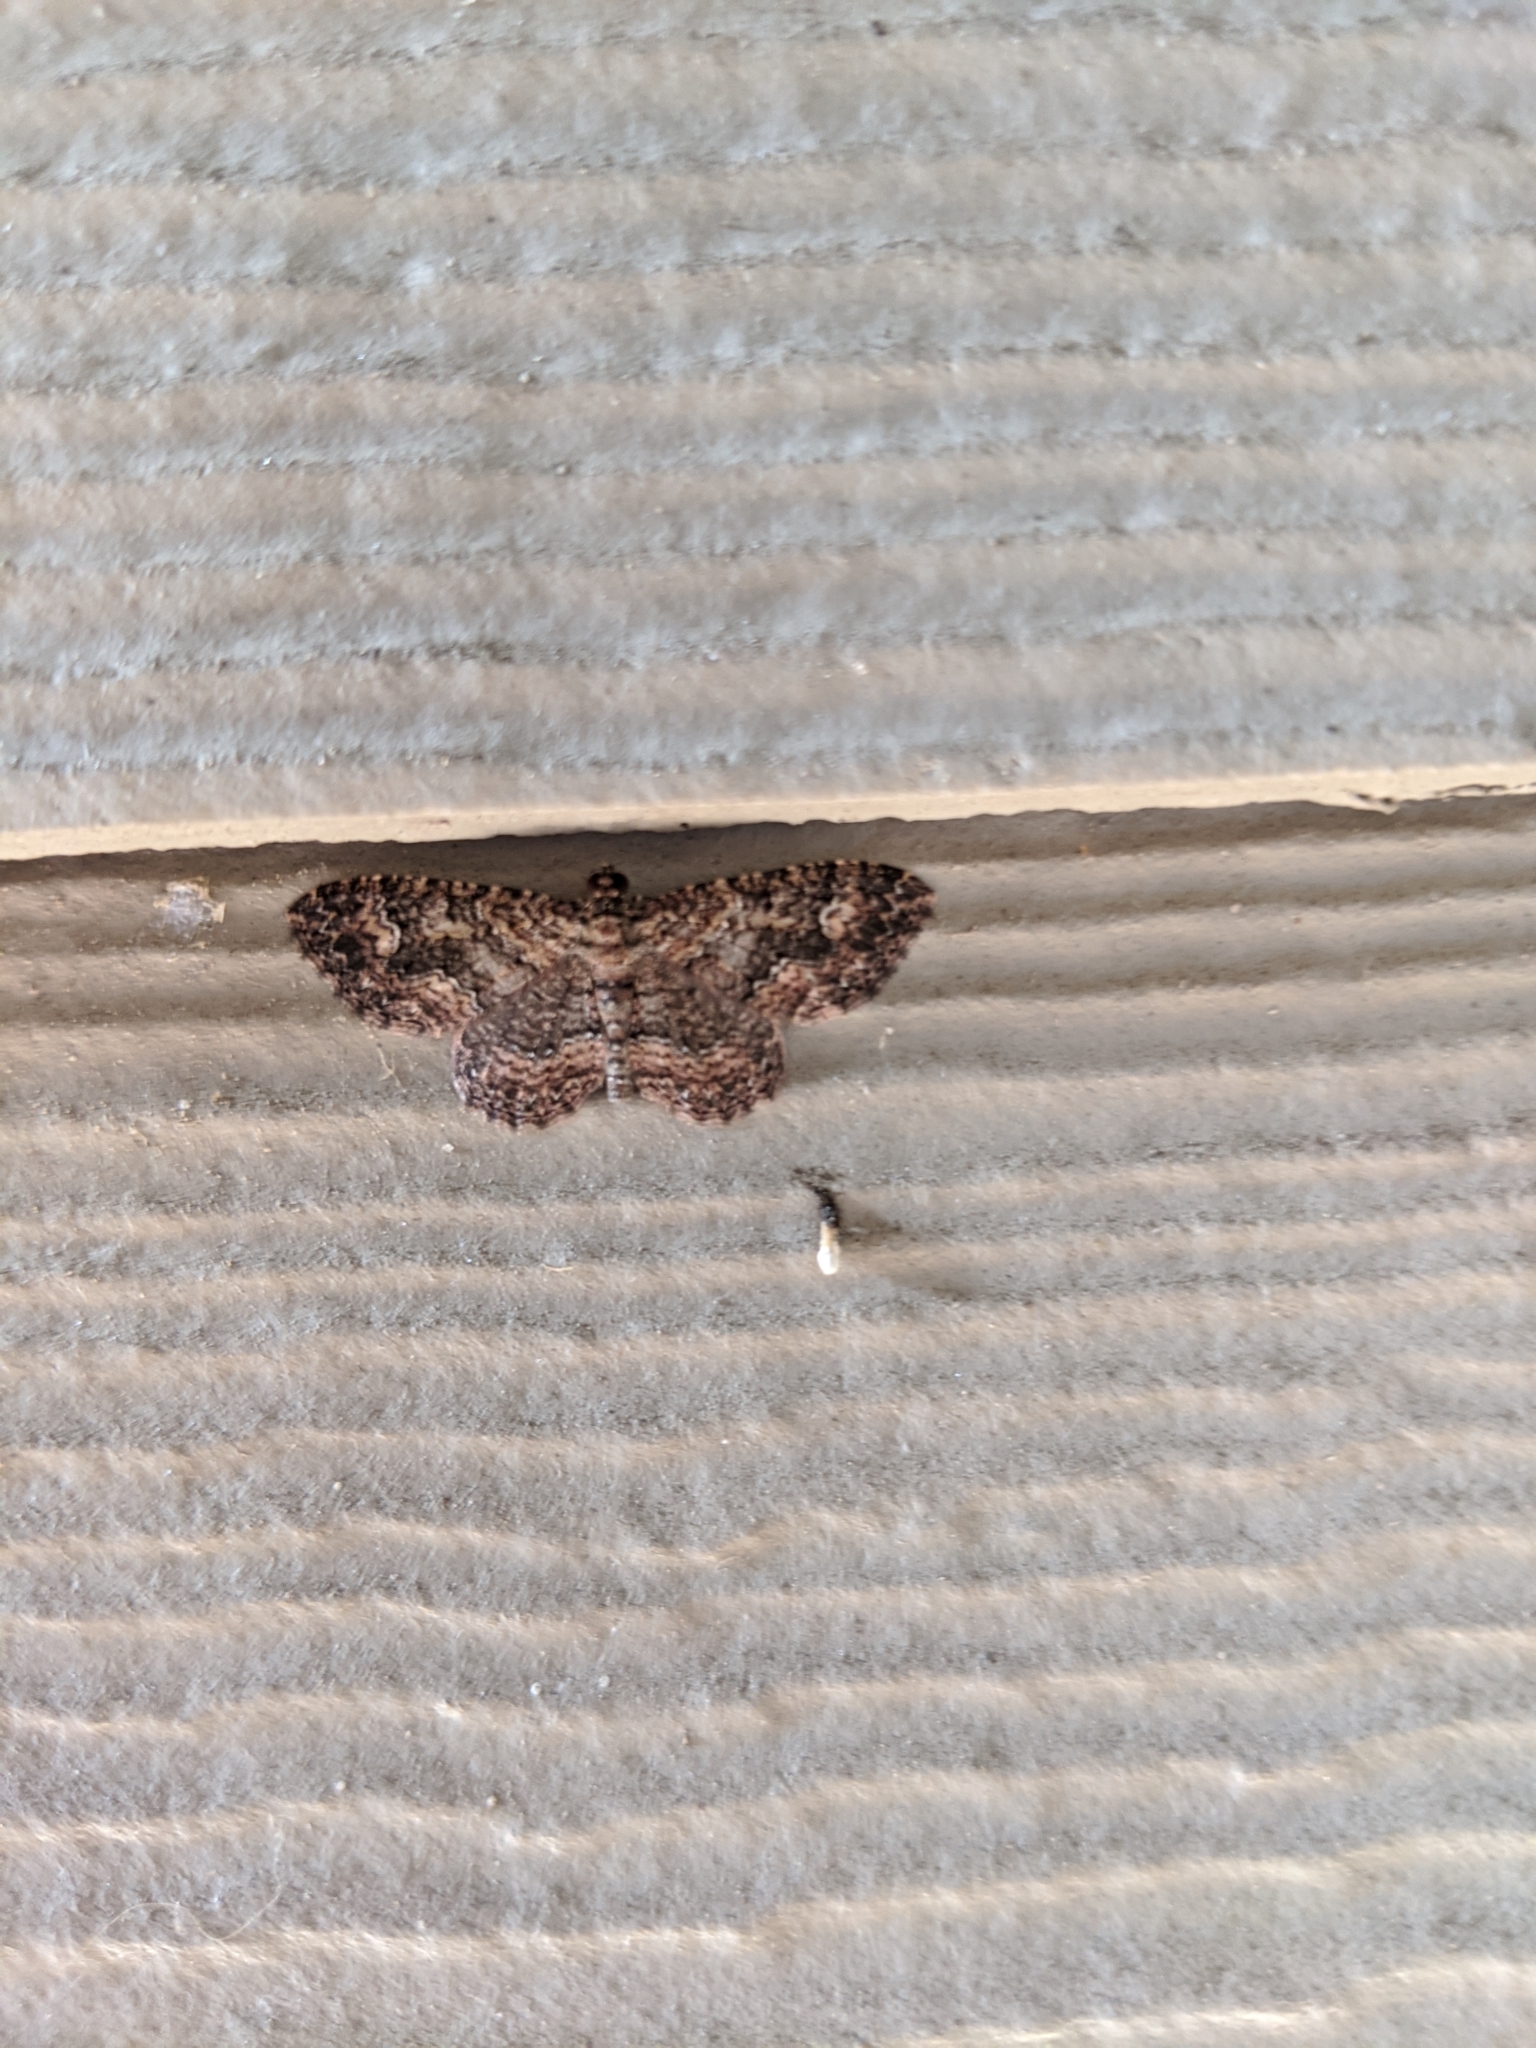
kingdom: Animalia
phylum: Arthropoda
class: Insecta
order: Lepidoptera
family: Geometridae
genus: Disclisioprocta
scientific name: Disclisioprocta stellata
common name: Somber carpet
